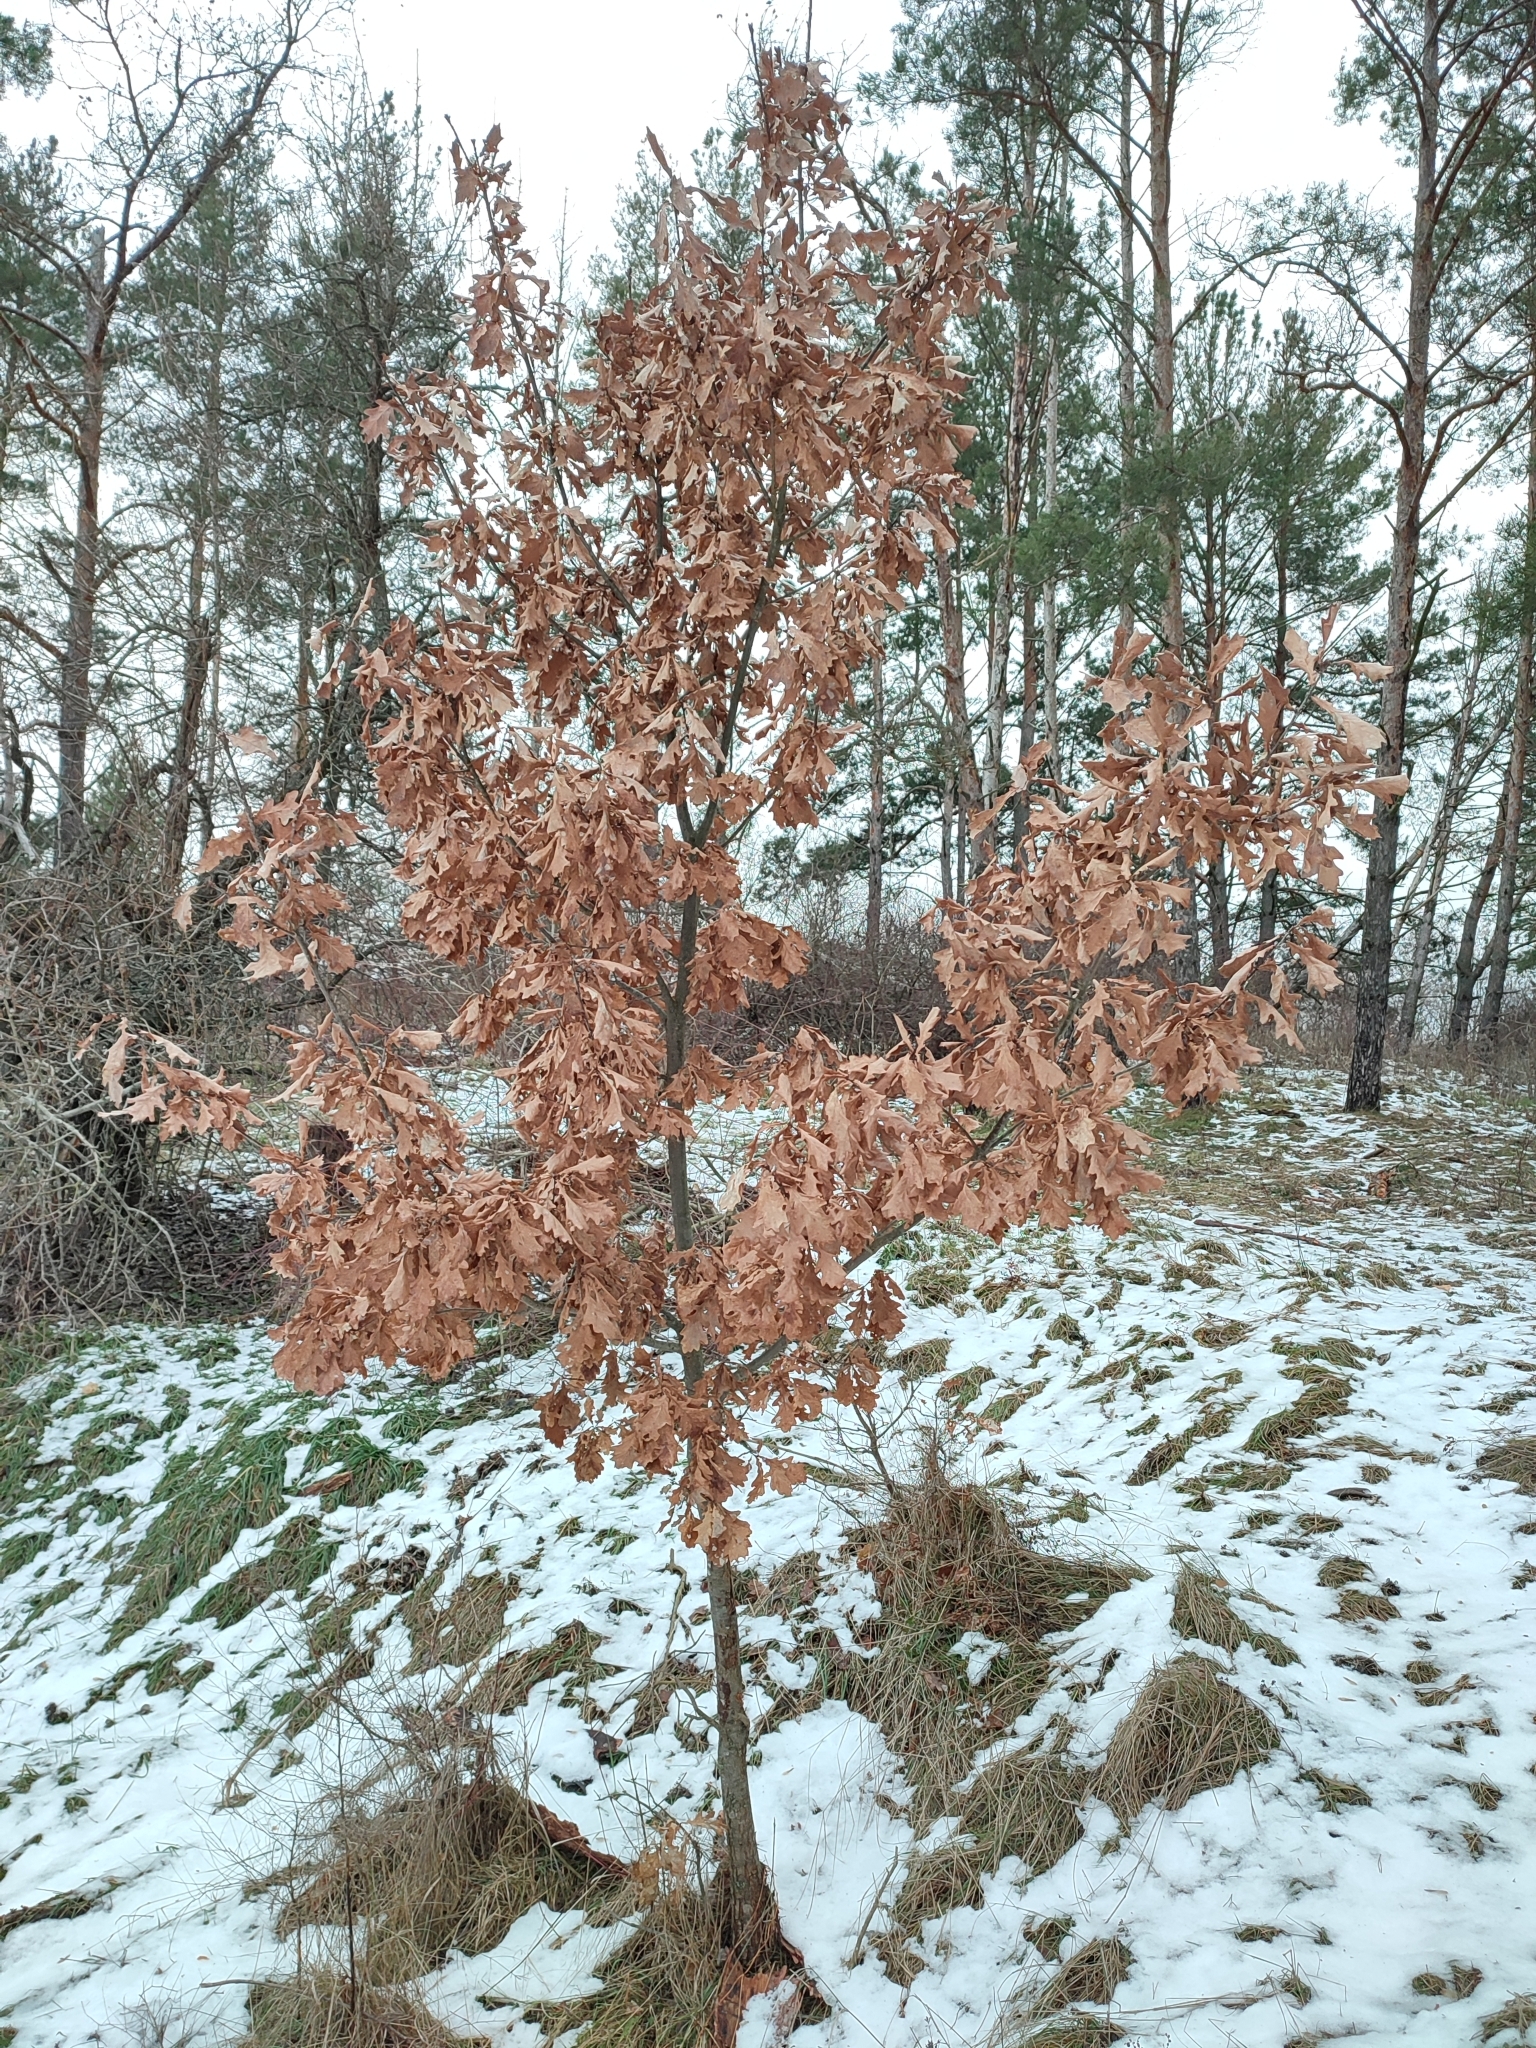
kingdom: Plantae
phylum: Tracheophyta
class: Magnoliopsida
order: Fagales
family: Fagaceae
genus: Quercus
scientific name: Quercus robur
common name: Pedunculate oak
